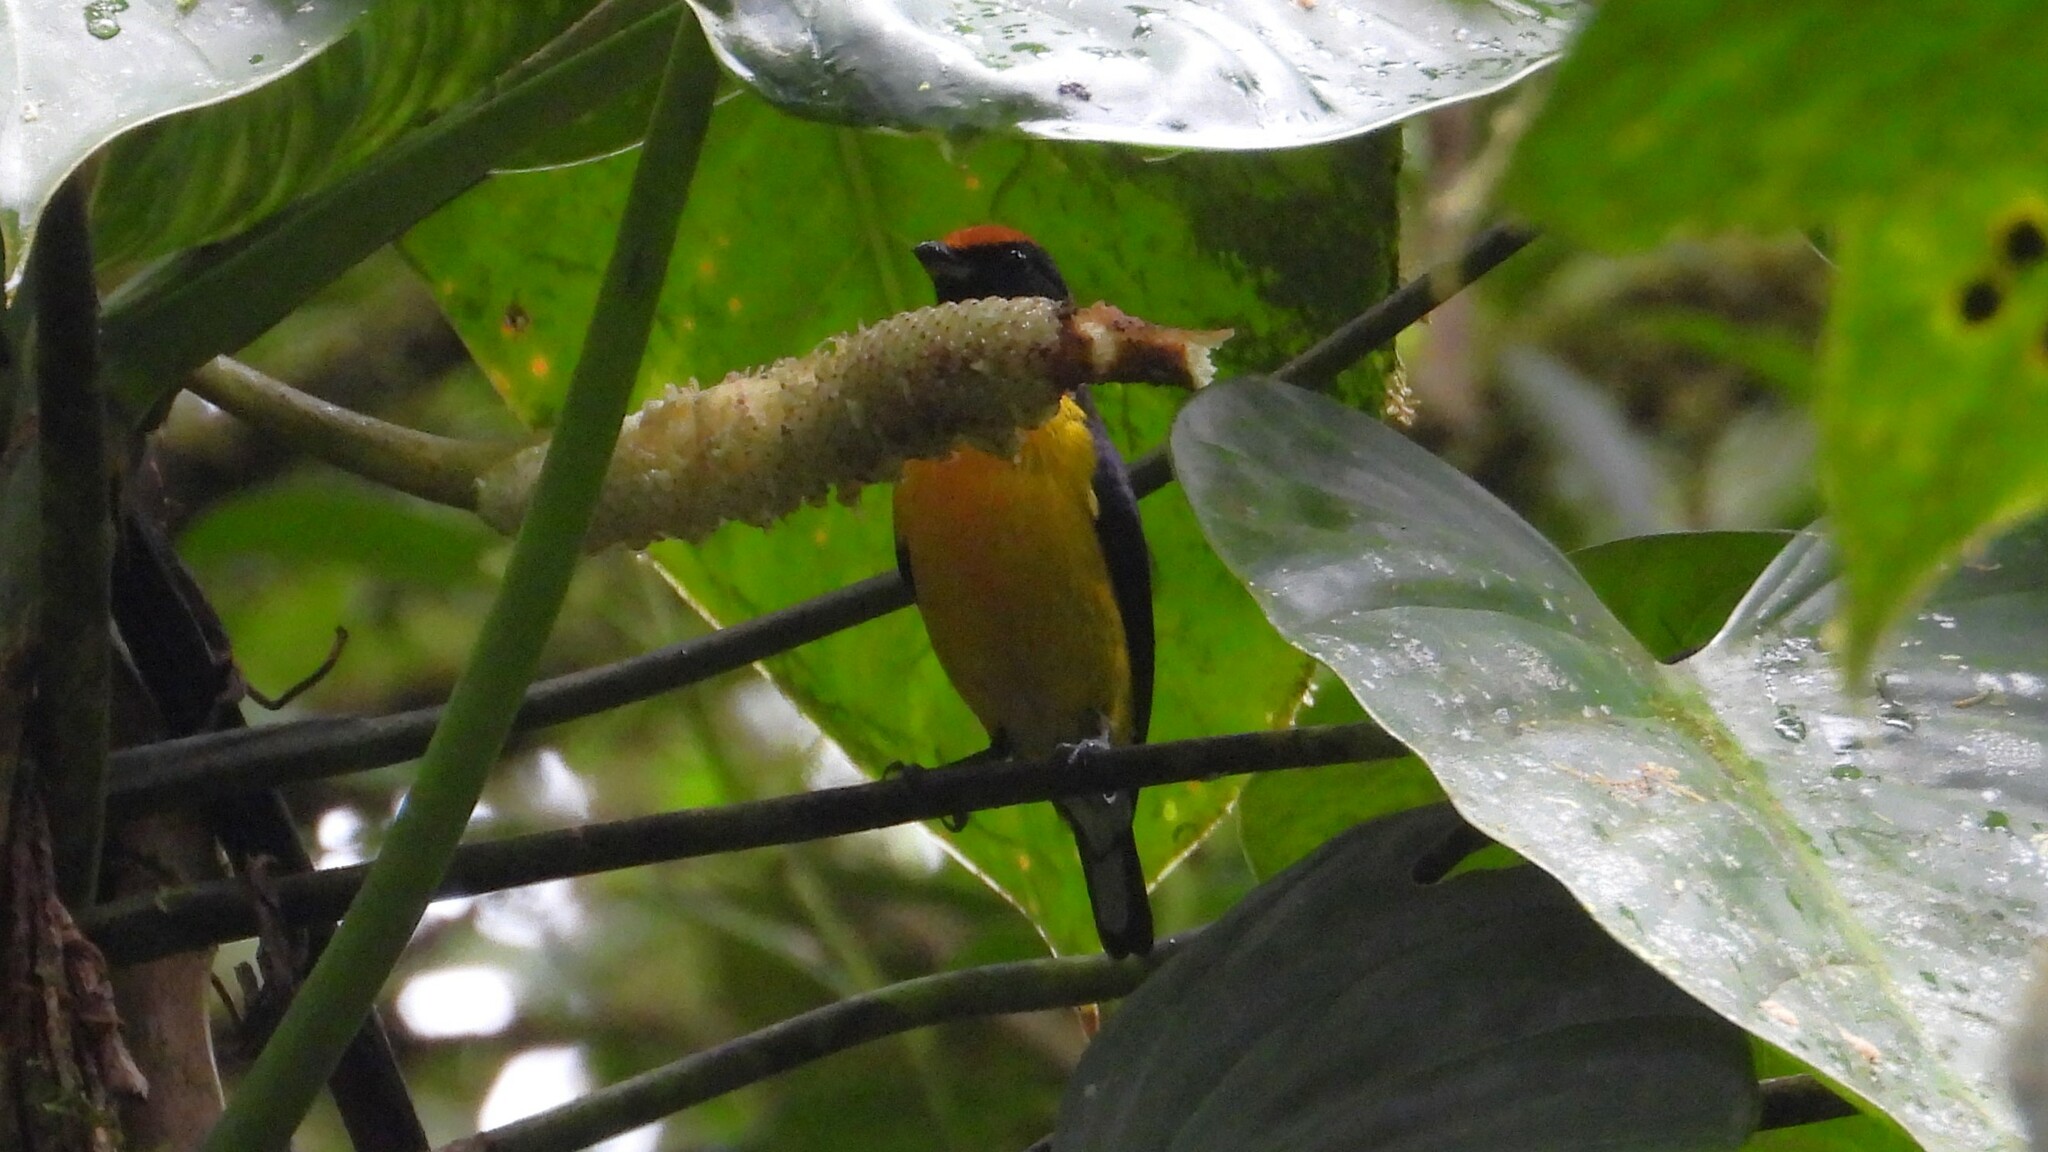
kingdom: Animalia
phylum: Chordata
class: Aves
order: Passeriformes
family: Fringillidae
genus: Euphonia
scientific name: Euphonia anneae
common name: Tawny-capped euphonia
